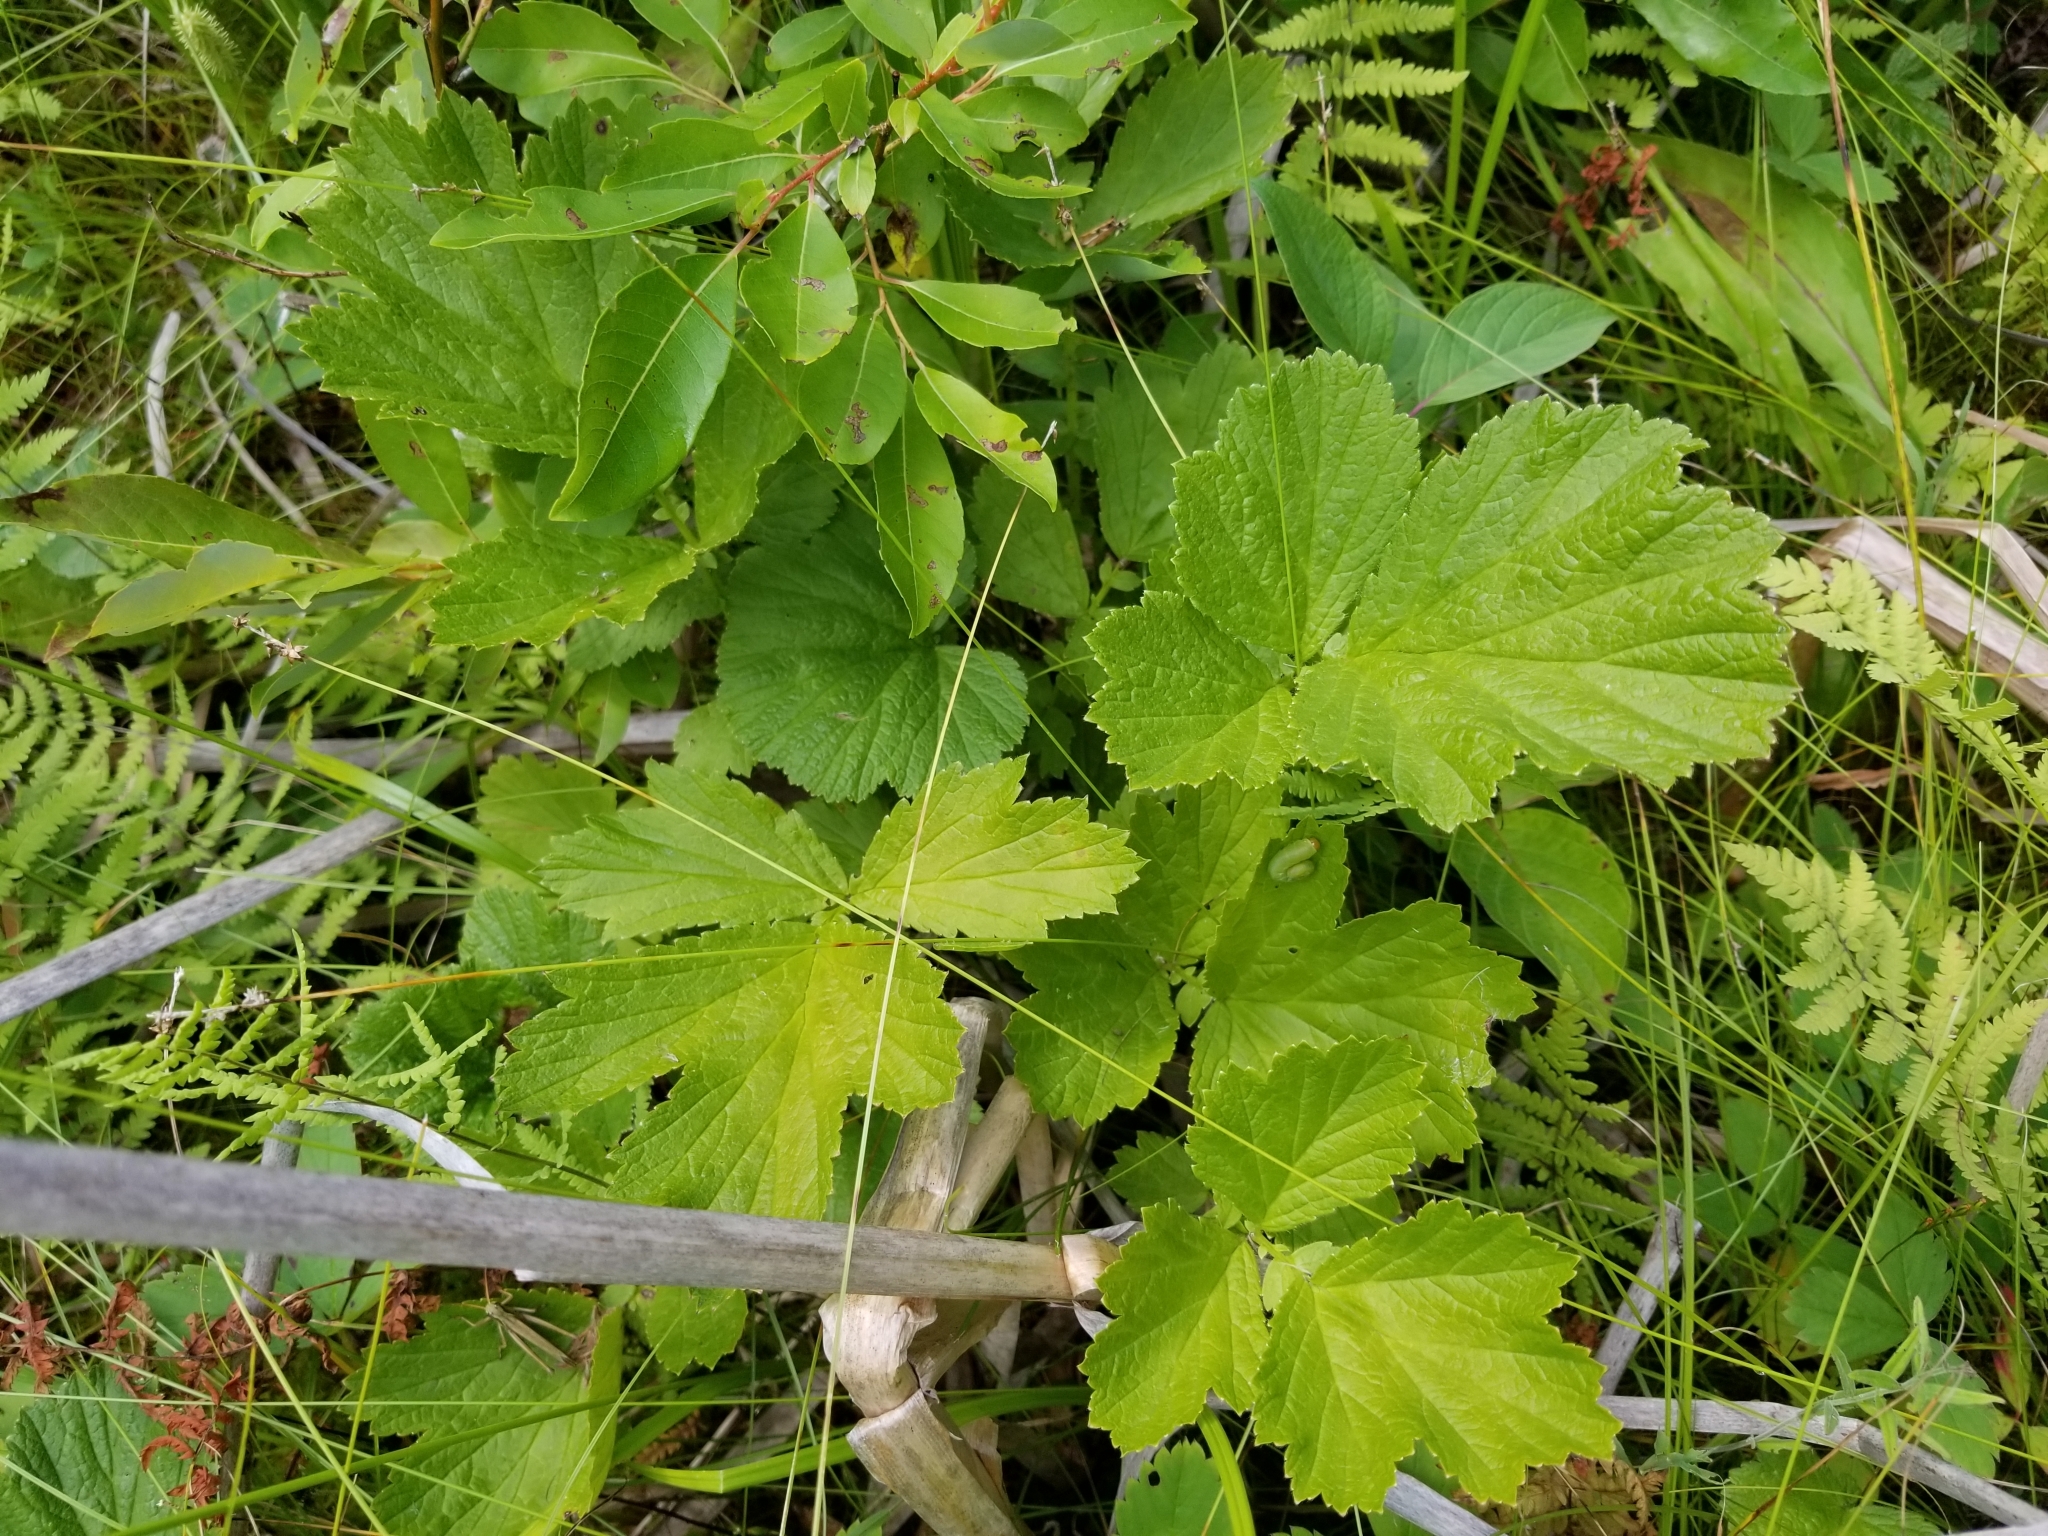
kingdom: Plantae
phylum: Tracheophyta
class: Magnoliopsida
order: Rosales
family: Rosaceae
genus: Geum
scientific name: Geum rivale
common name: Water avens
